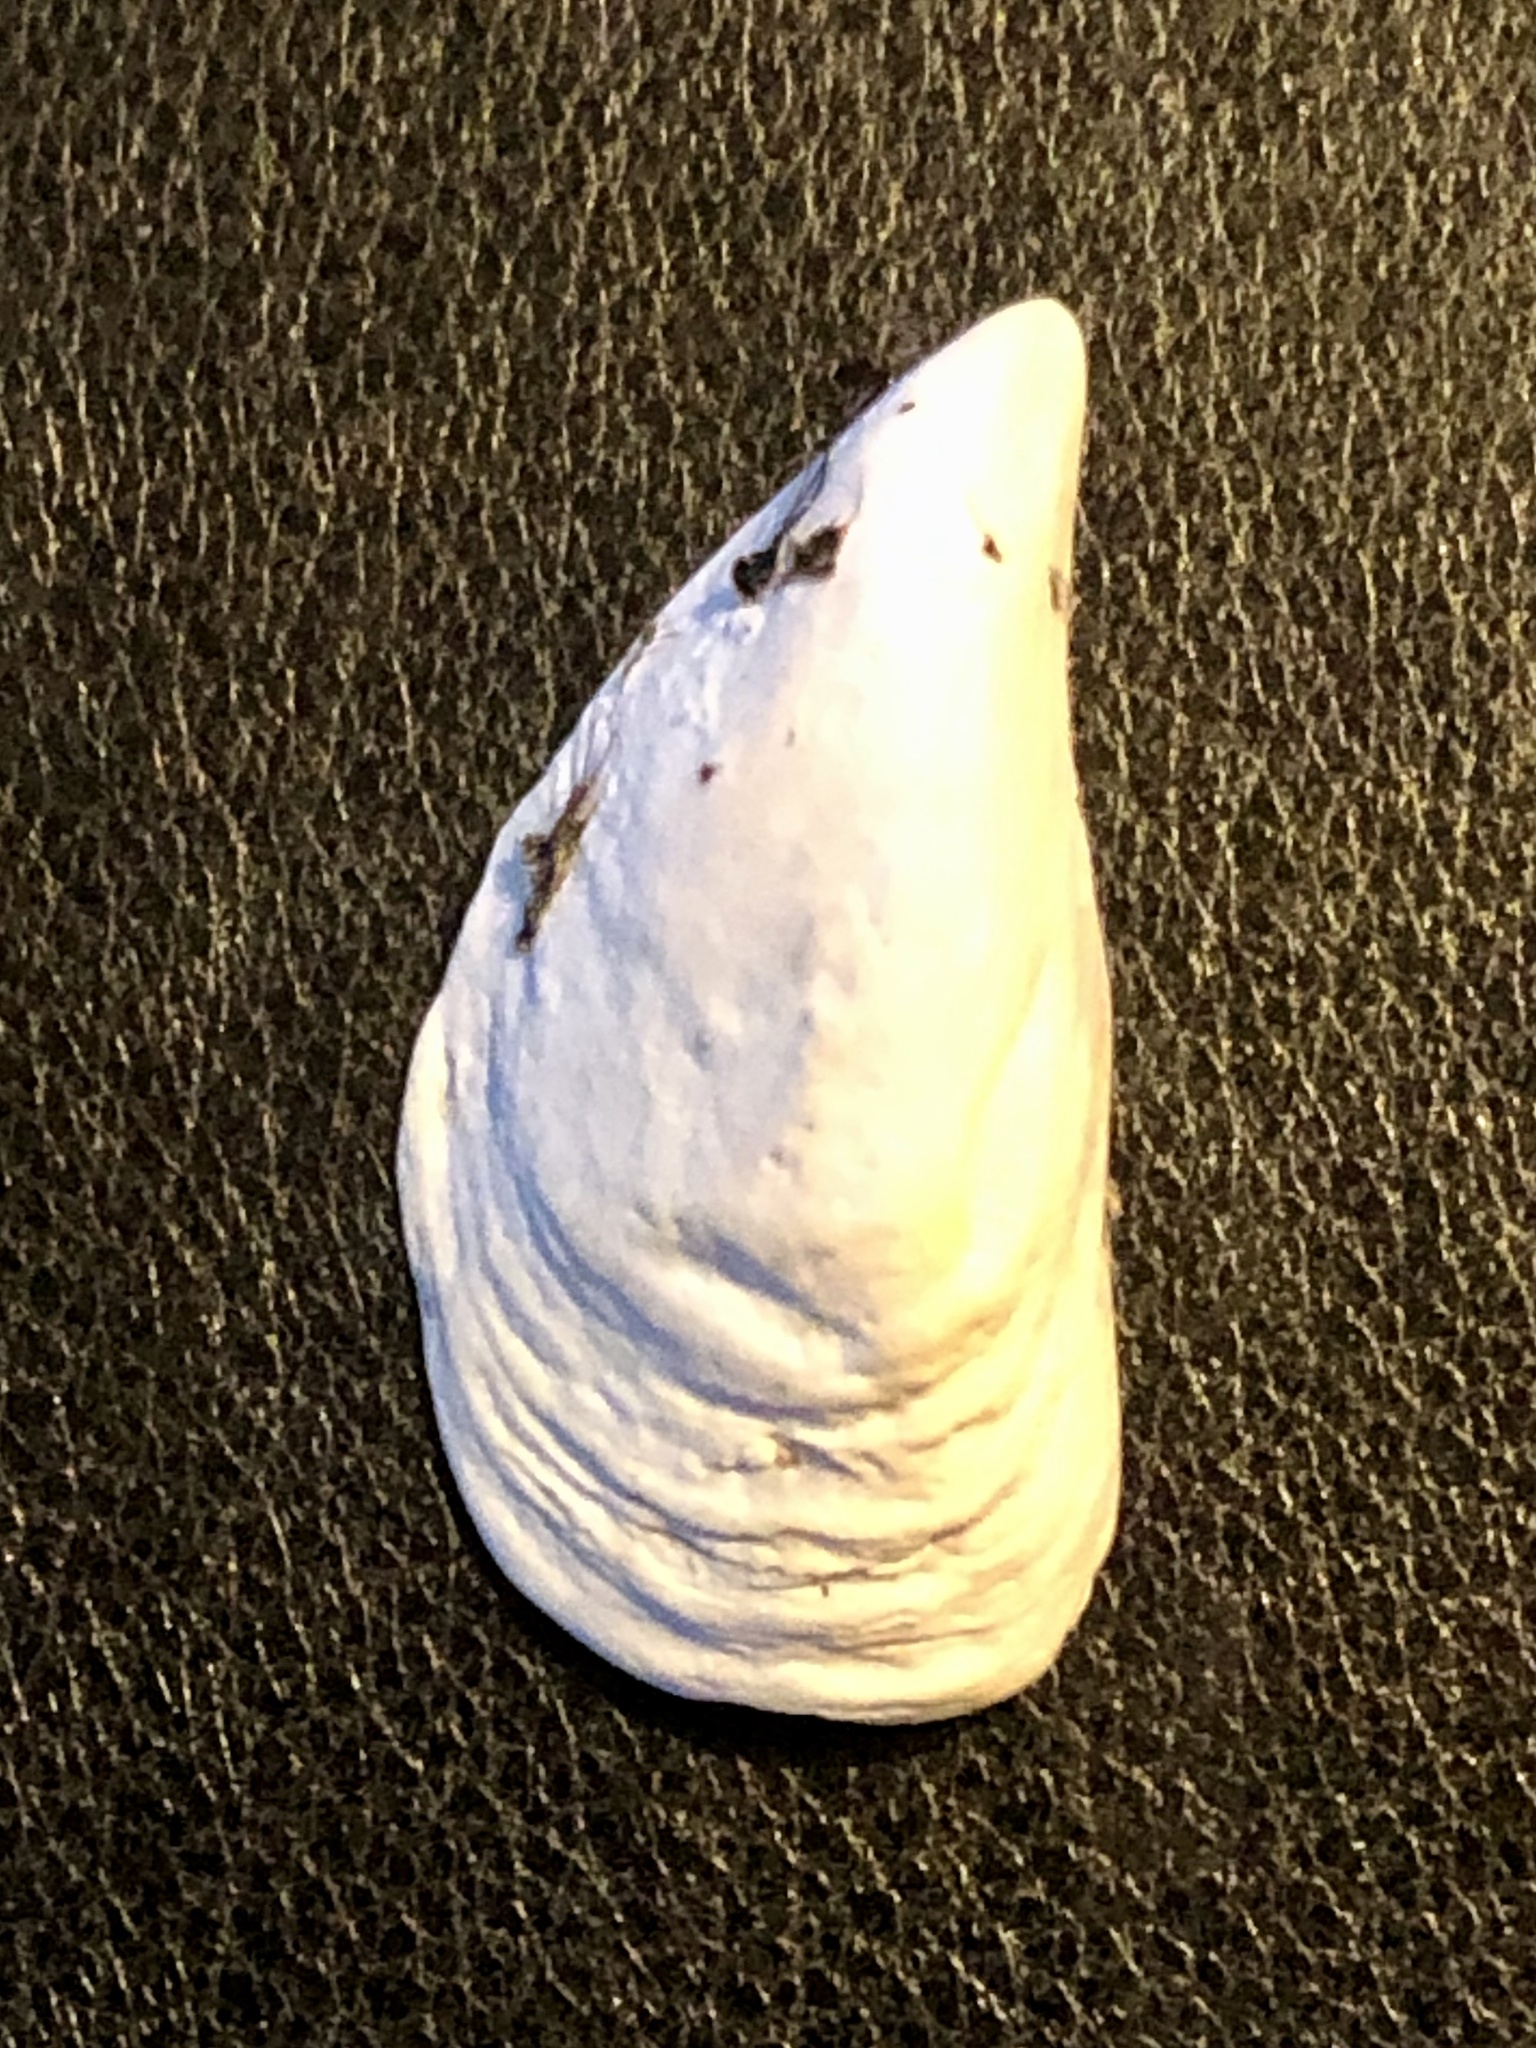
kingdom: Animalia
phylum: Mollusca
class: Bivalvia
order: Myida
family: Dreissenidae
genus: Dreissena
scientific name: Dreissena bugensis
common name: Quagga mussel
